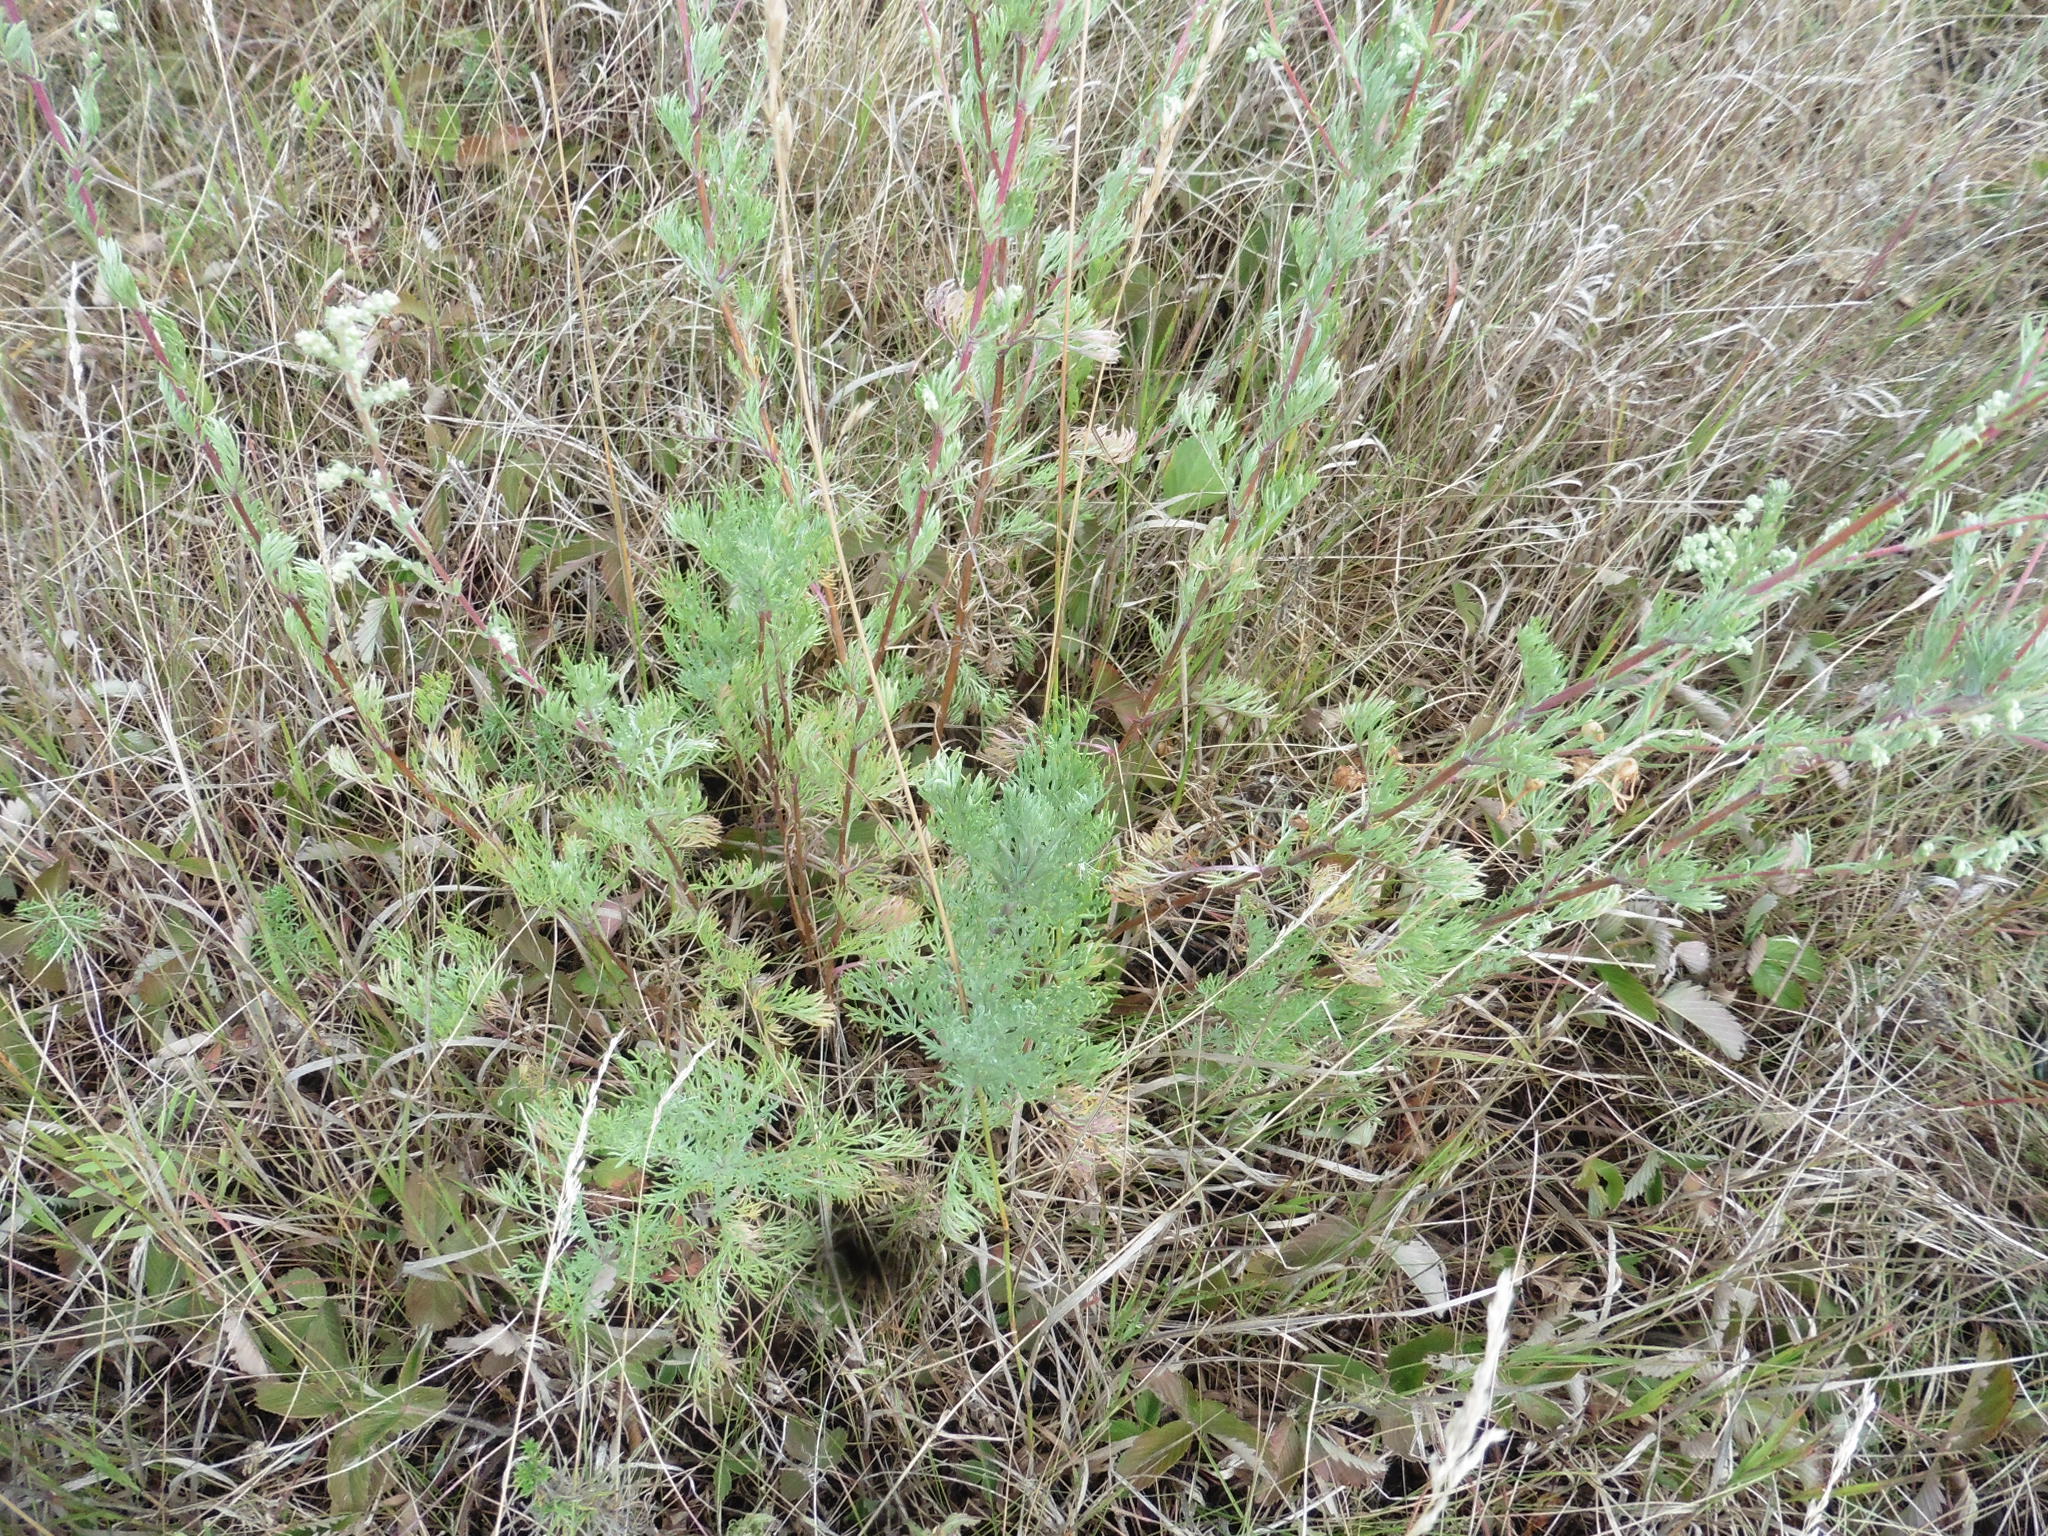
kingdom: Plantae
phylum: Tracheophyta
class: Magnoliopsida
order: Asterales
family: Asteraceae
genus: Artemisia
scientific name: Artemisia campestris
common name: Field wormwood
